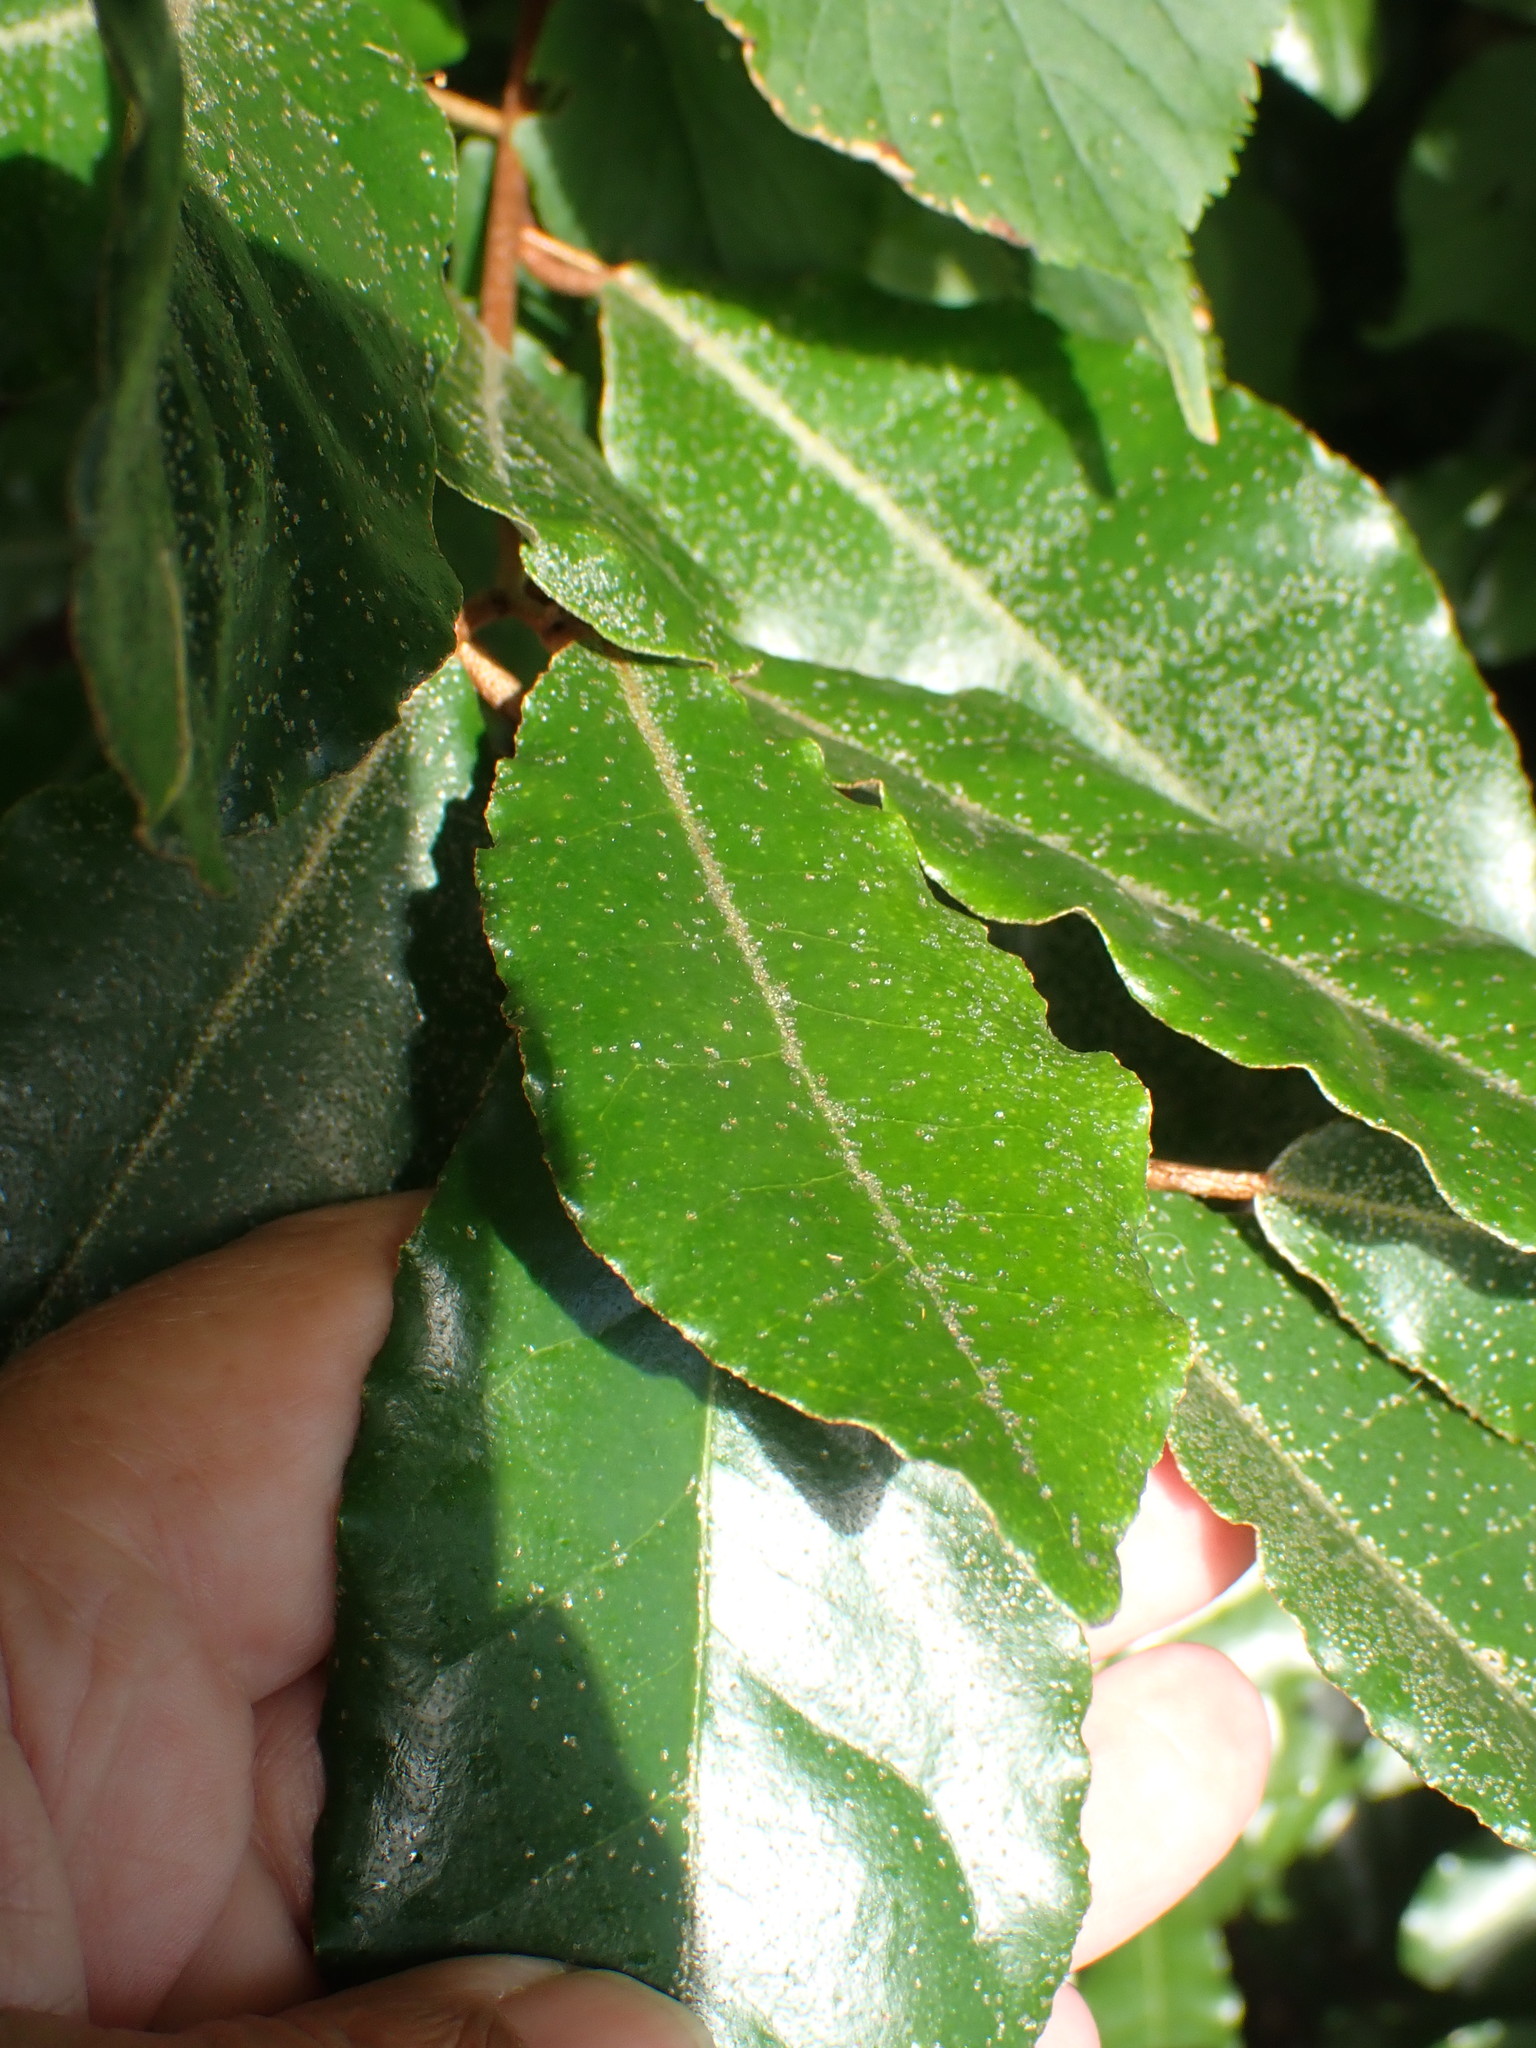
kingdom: Plantae
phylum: Tracheophyta
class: Magnoliopsida
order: Laurales
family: Lauraceae
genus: Laurus
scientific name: Laurus nobilis
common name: Bay
